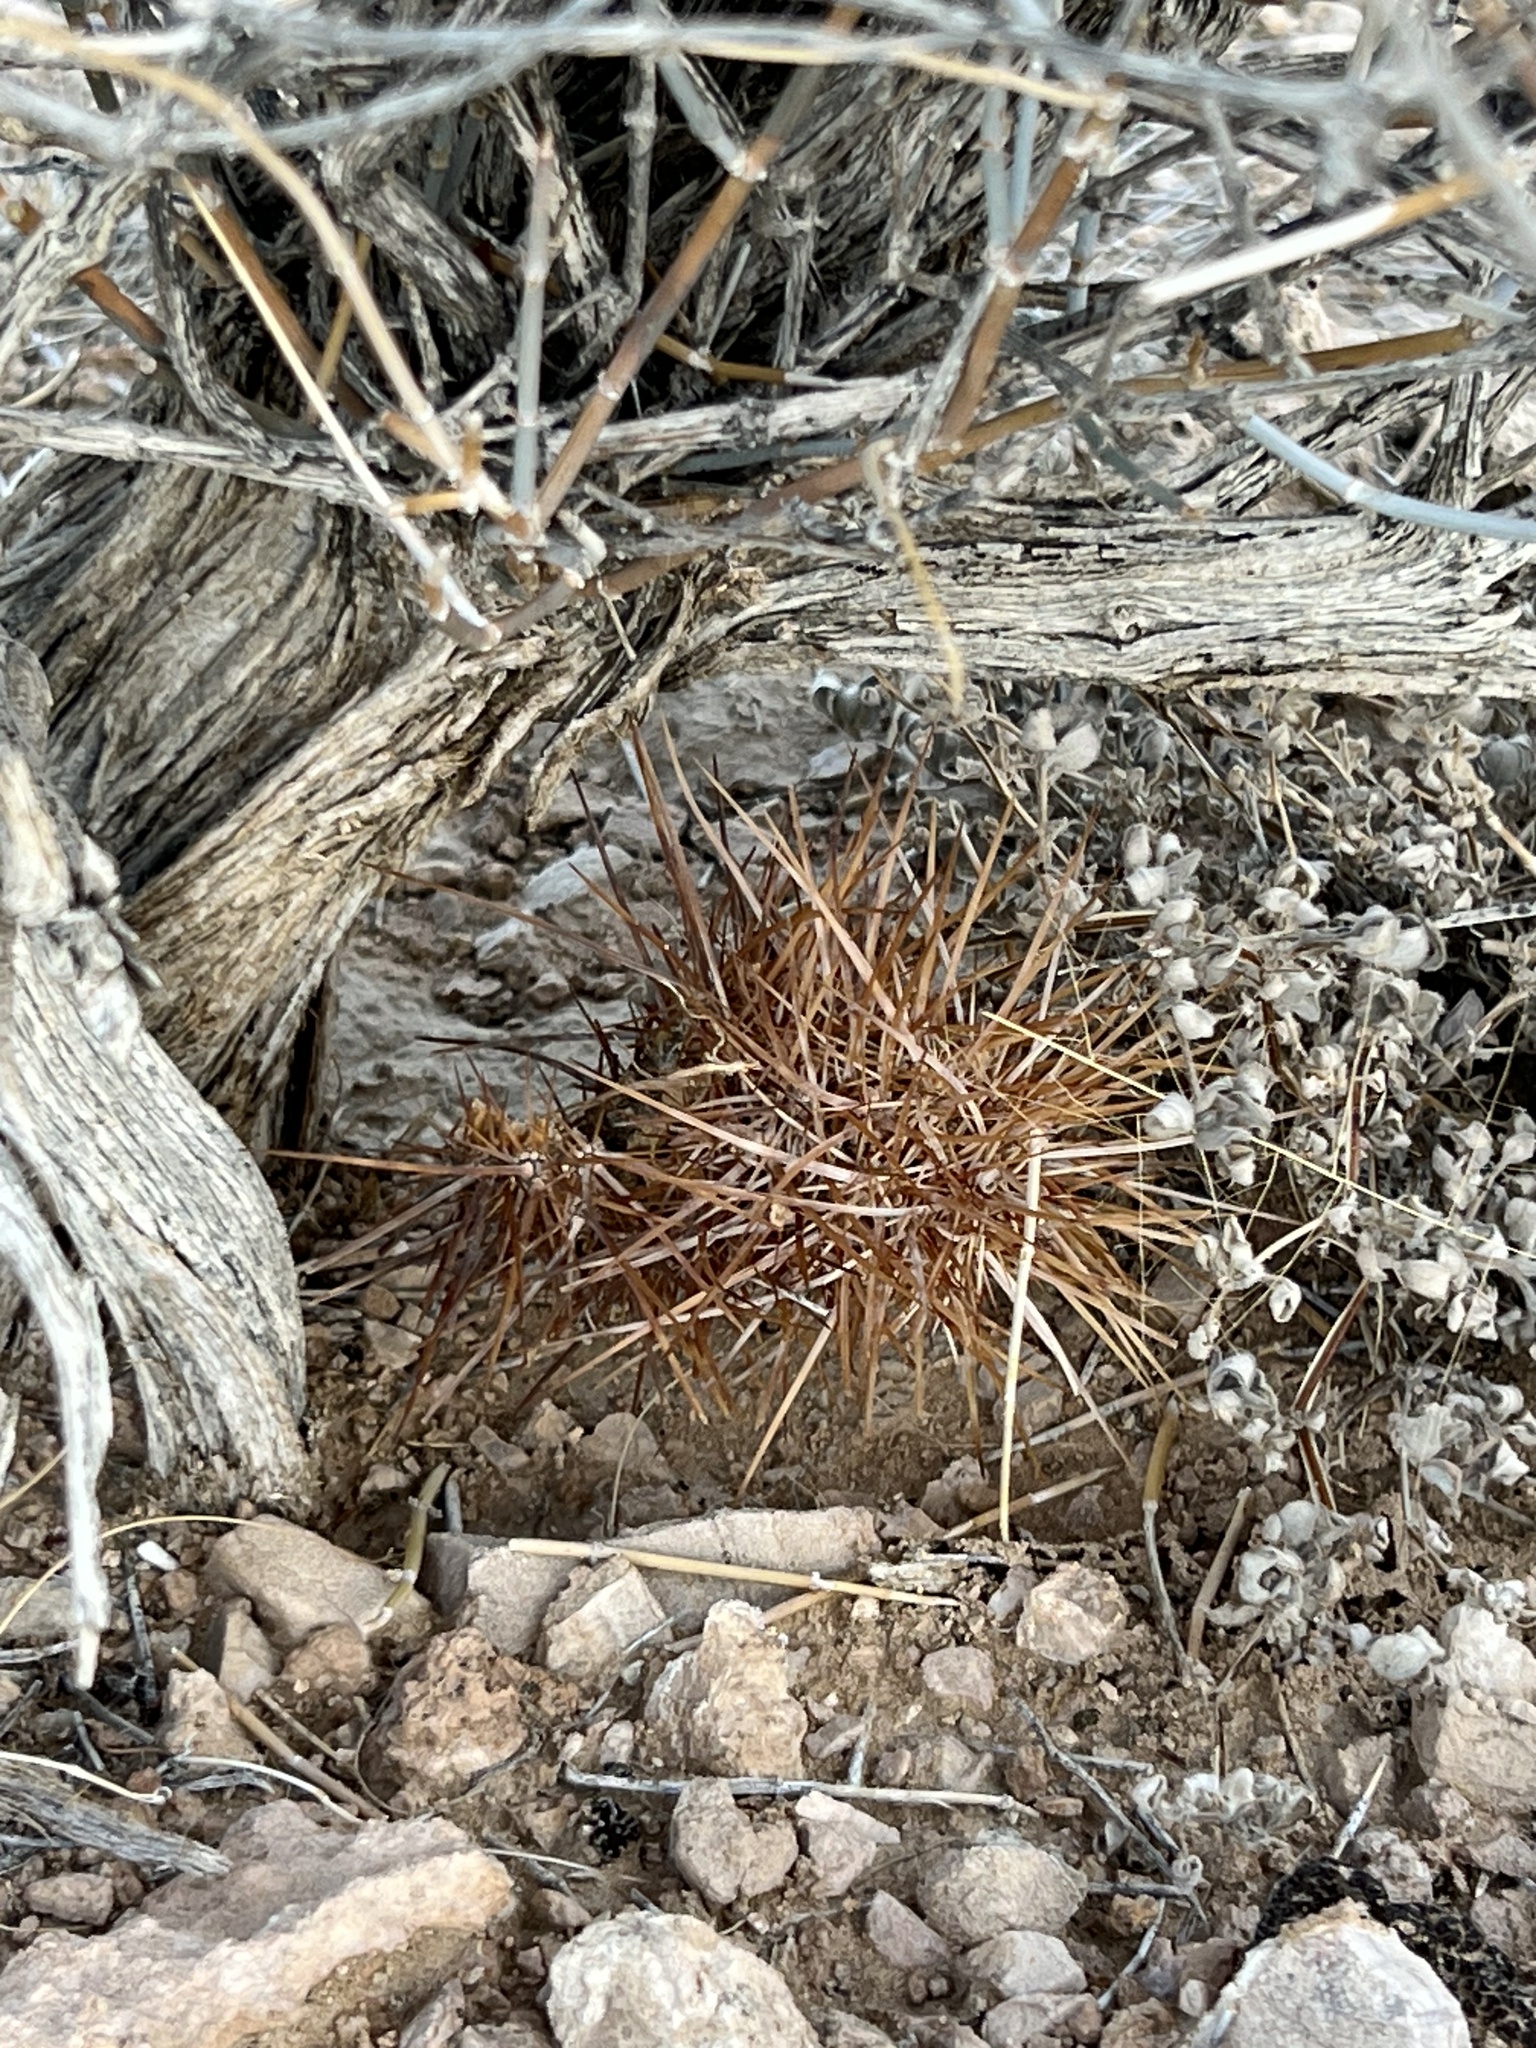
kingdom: Plantae
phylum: Tracheophyta
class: Magnoliopsida
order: Caryophyllales
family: Cactaceae
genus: Echinocereus
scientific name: Echinocereus engelmannii
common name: Engelmann's hedgehog cactus
